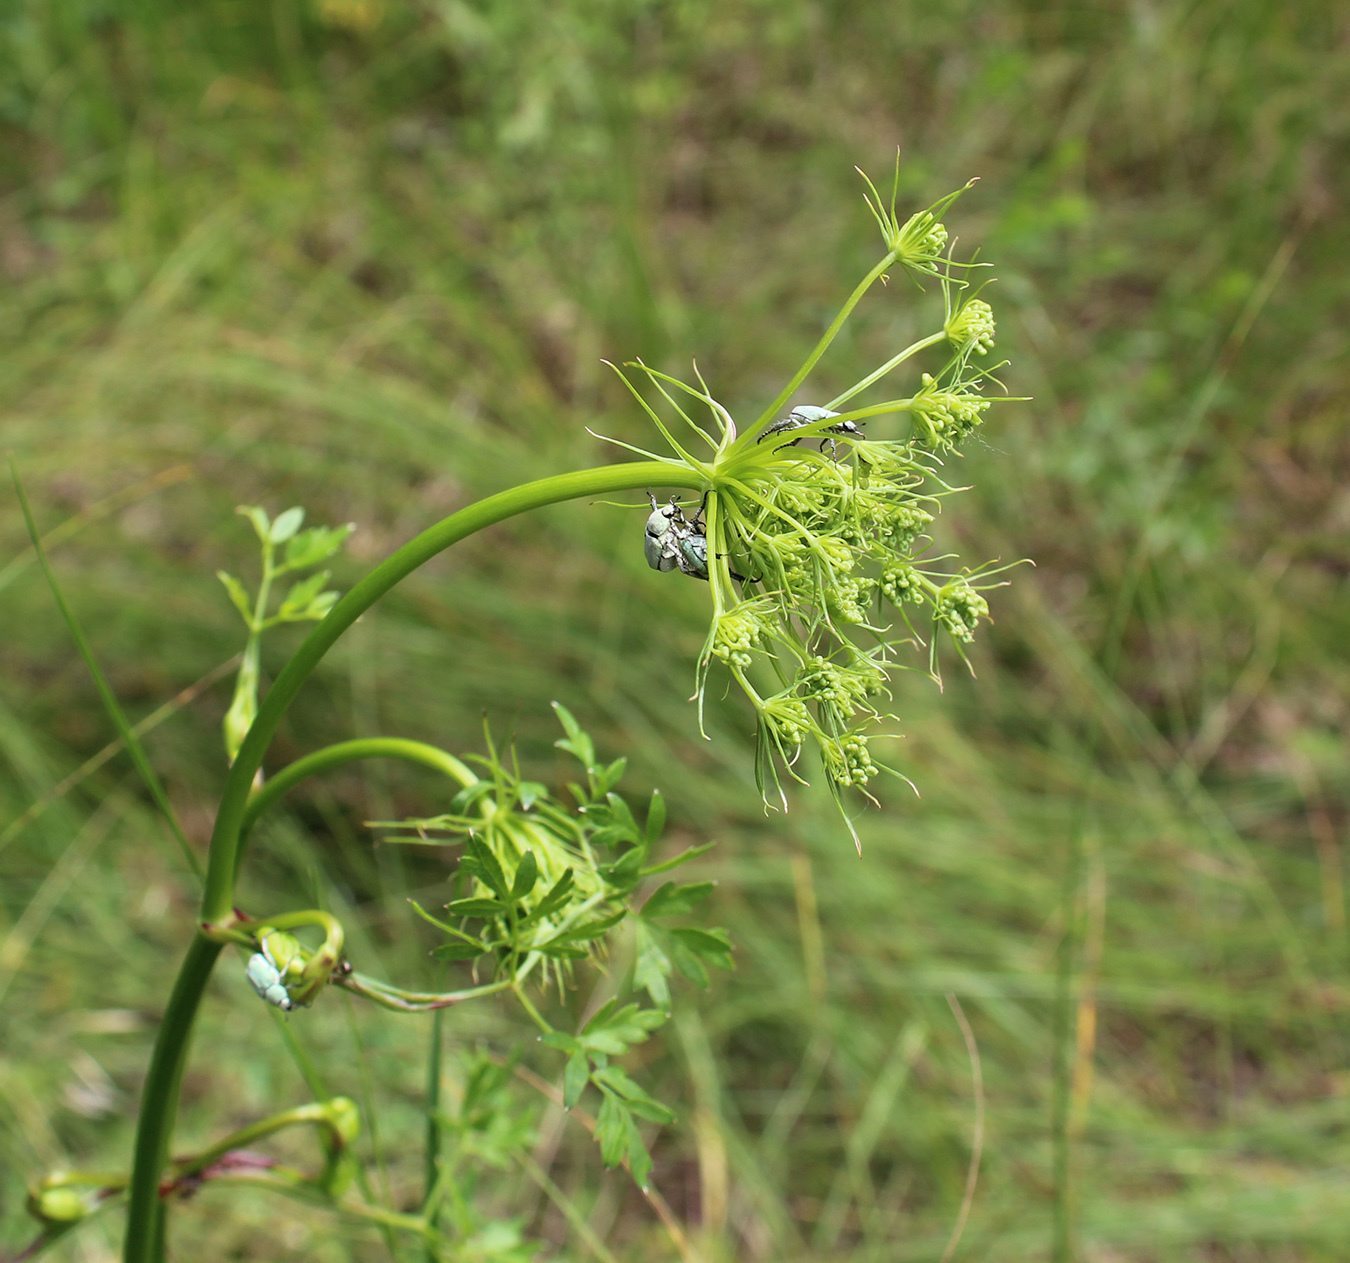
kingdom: Animalia
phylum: Arthropoda
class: Insecta
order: Coleoptera
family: Scarabaeidae
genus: Hoplia
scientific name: Hoplia parvula
